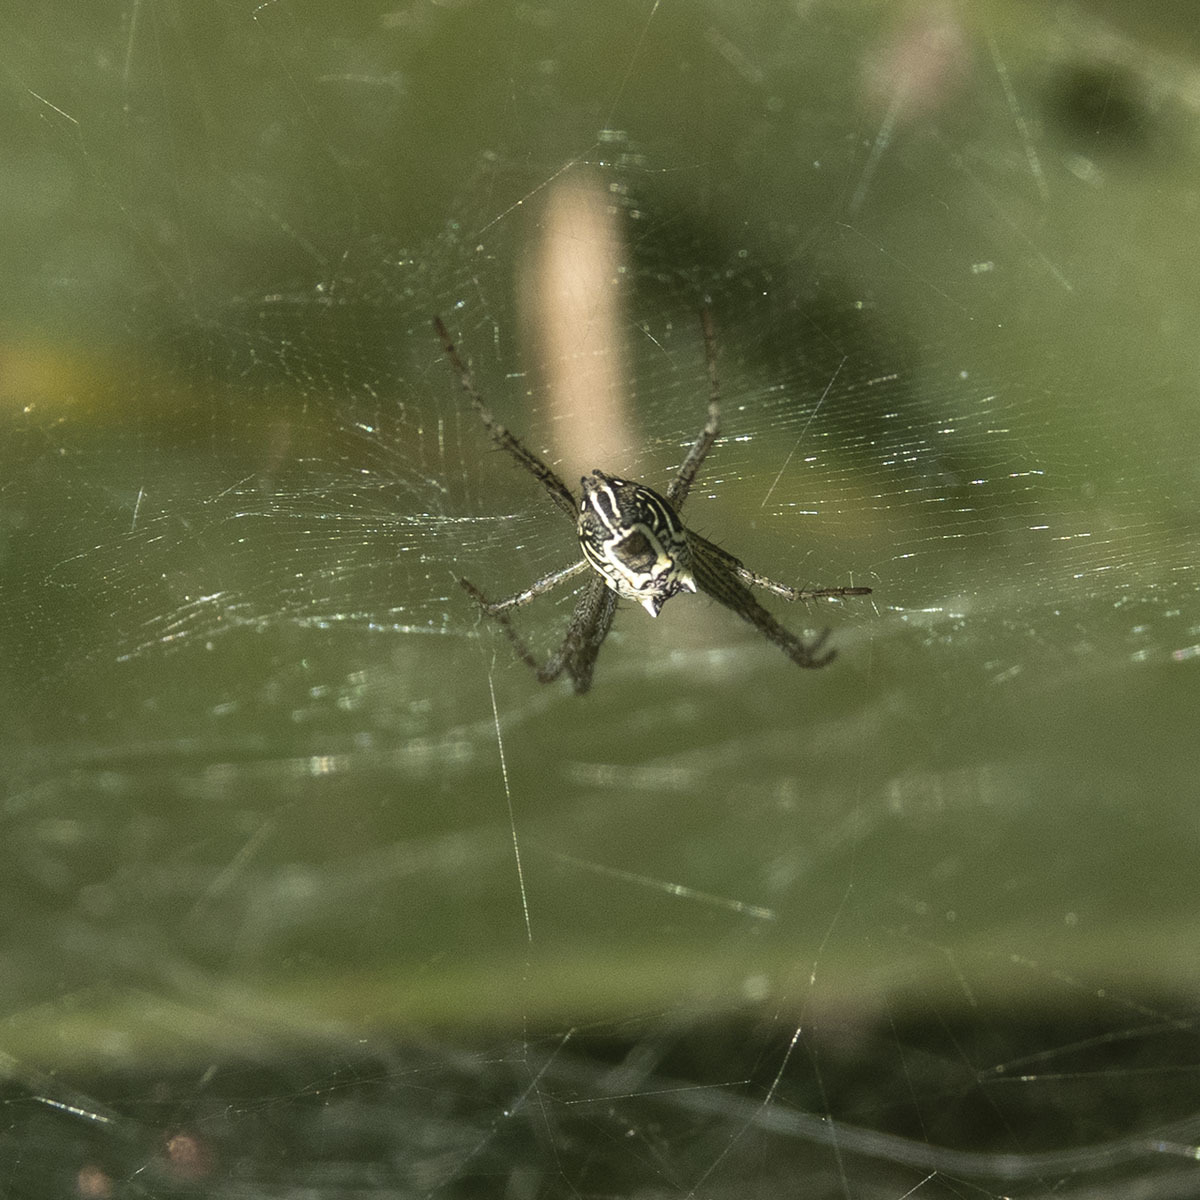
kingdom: Animalia
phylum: Arthropoda
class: Arachnida
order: Araneae
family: Araneidae
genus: Cyrtophora
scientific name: Cyrtophora cicatrosa
